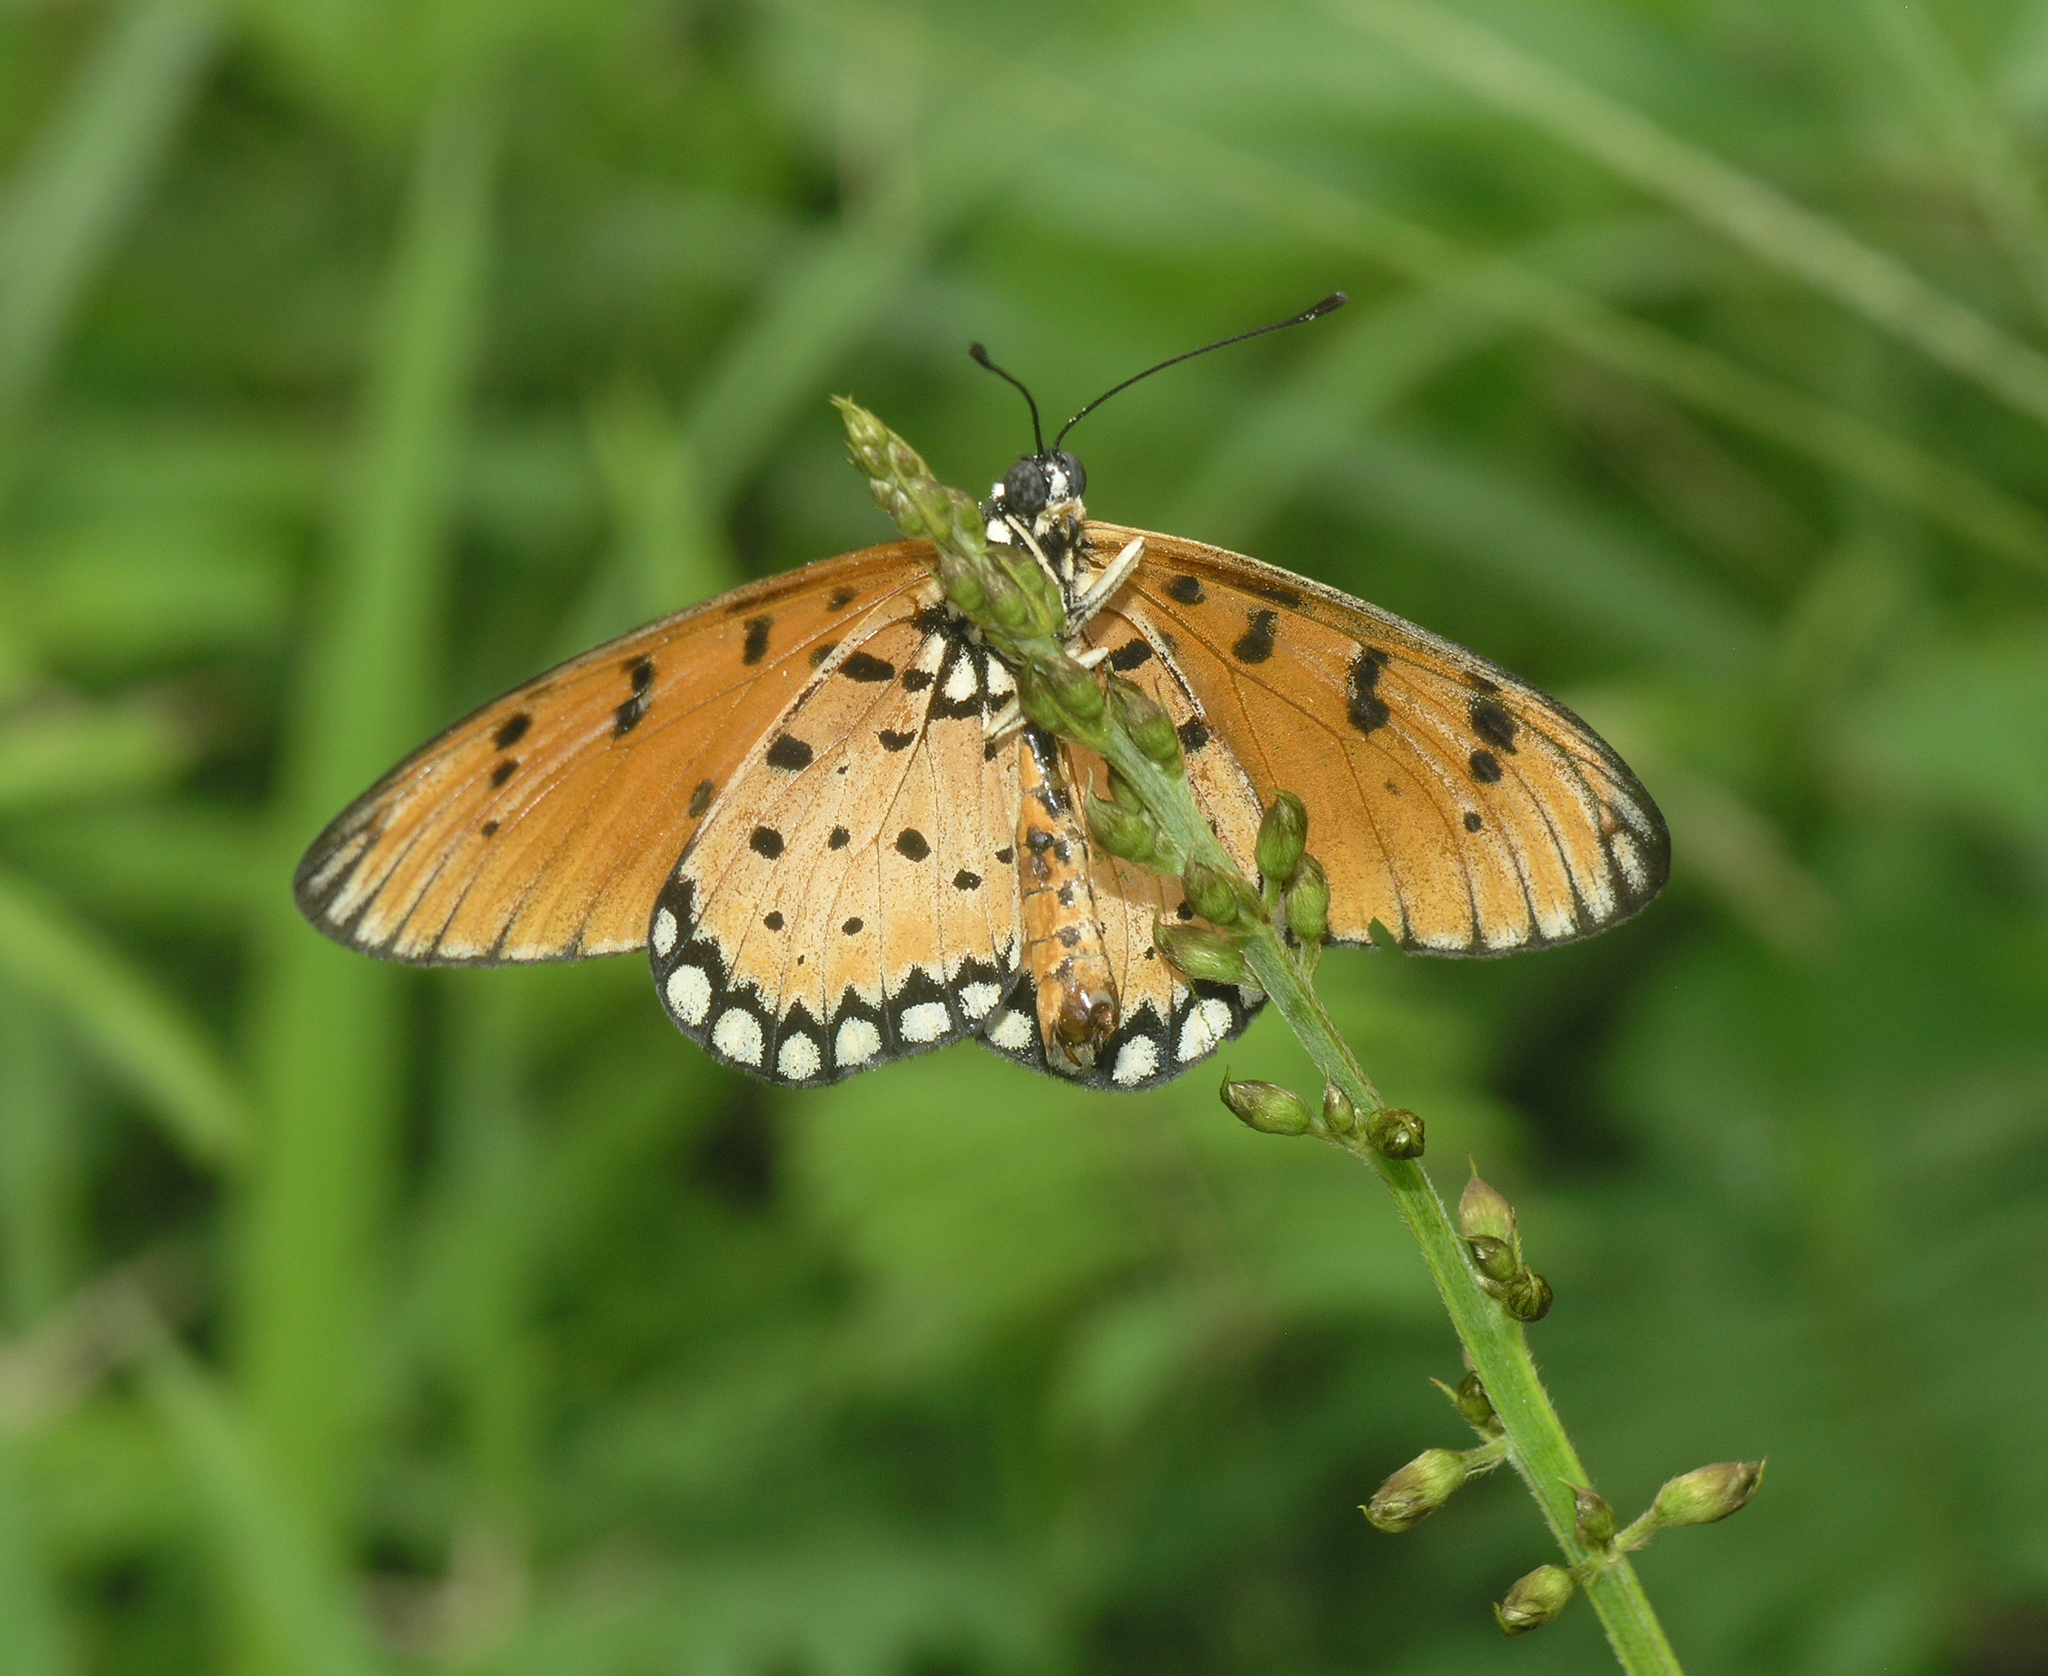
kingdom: Animalia
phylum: Arthropoda
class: Insecta
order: Lepidoptera
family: Nymphalidae
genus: Acraea
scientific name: Acraea terpsicore
